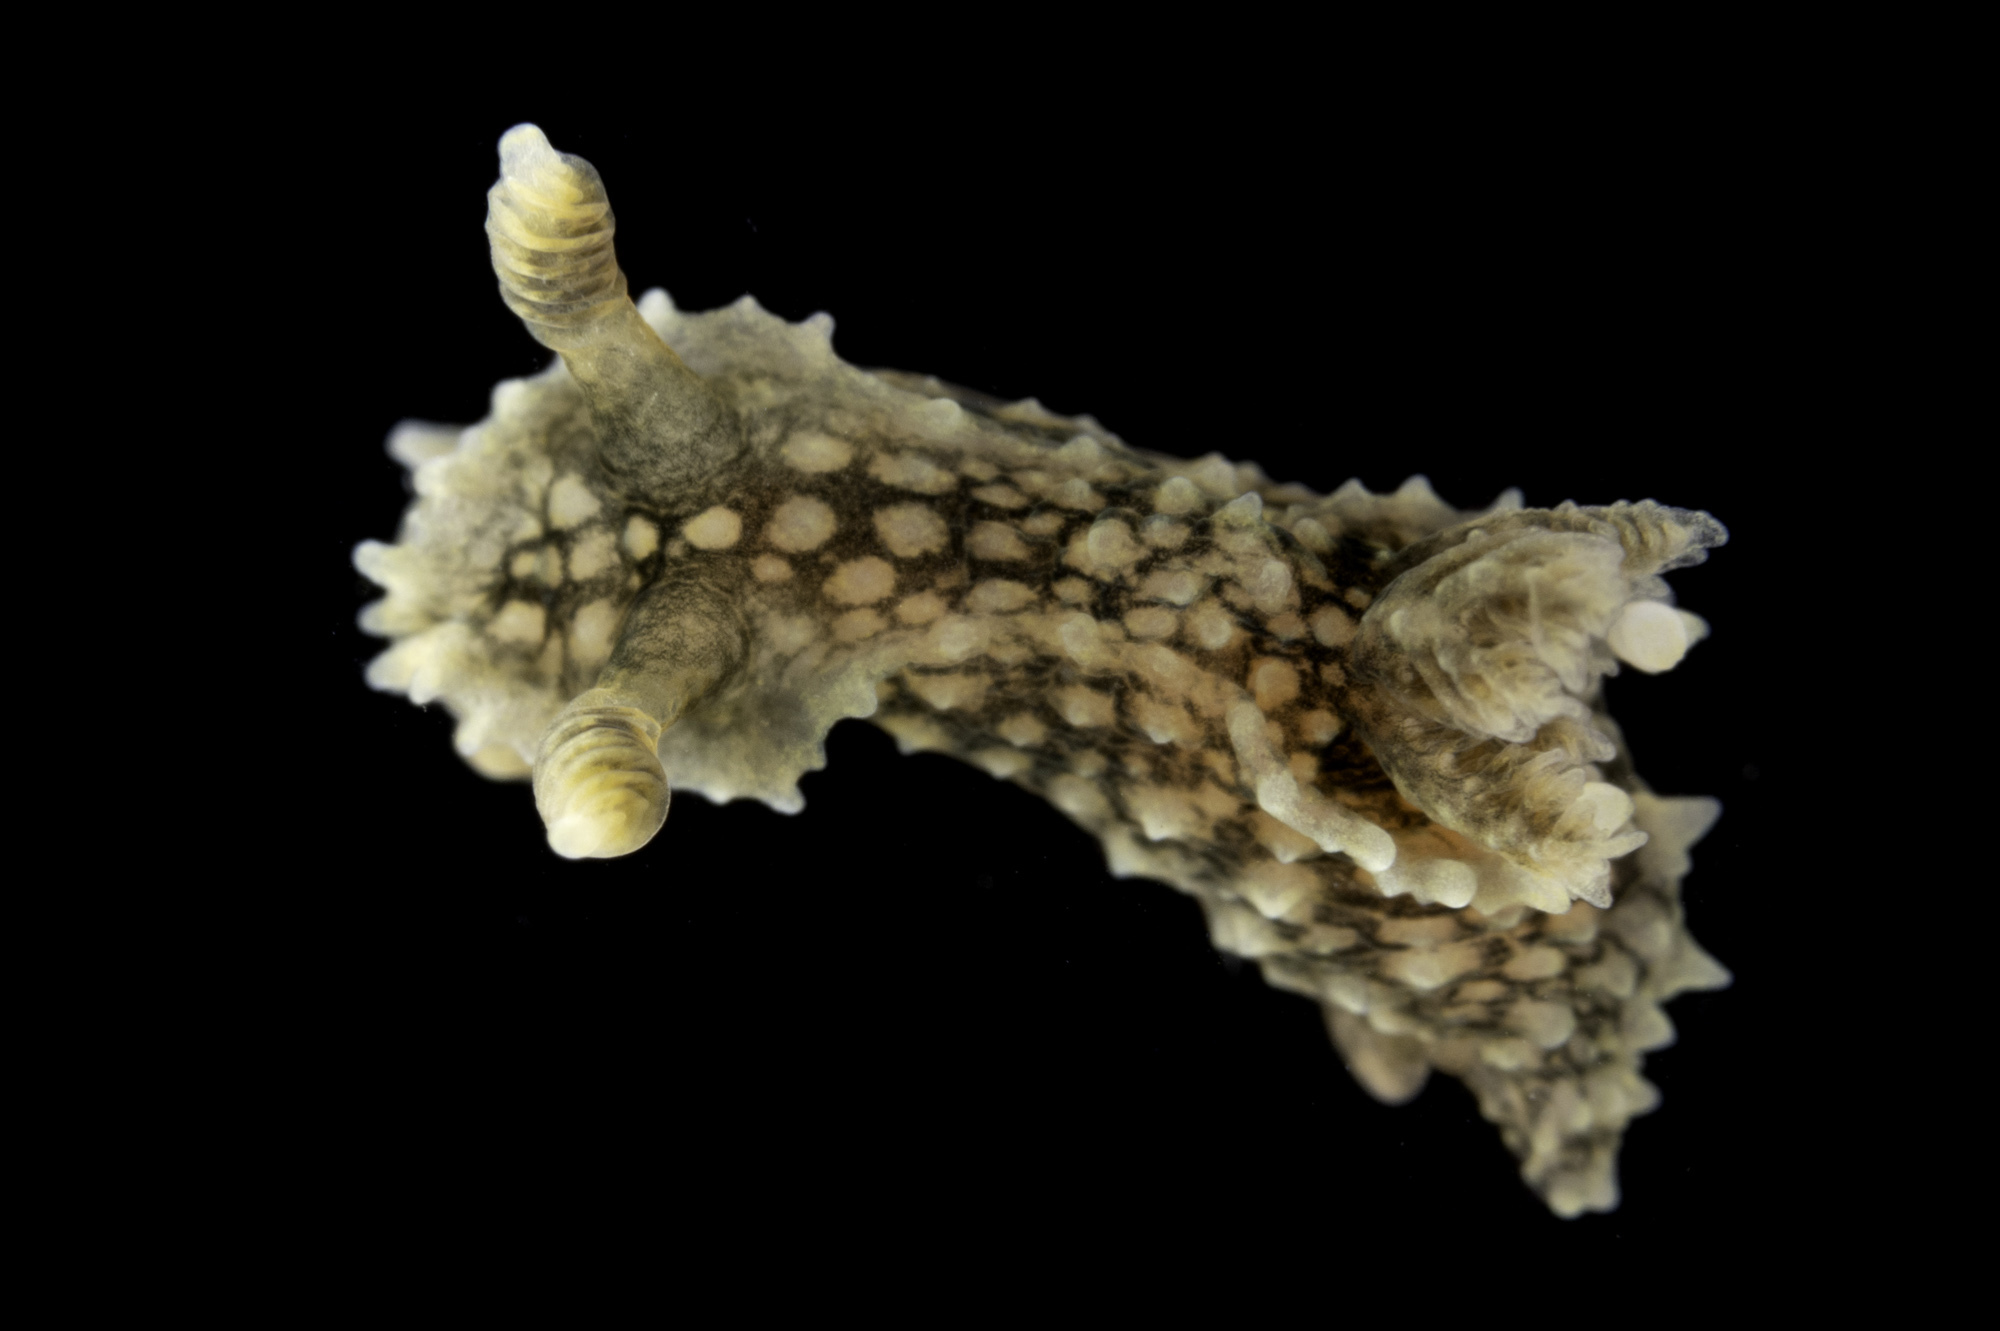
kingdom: Animalia
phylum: Mollusca
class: Gastropoda
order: Nudibranchia
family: Polyceridae
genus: Palio
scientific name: Palio nothus
